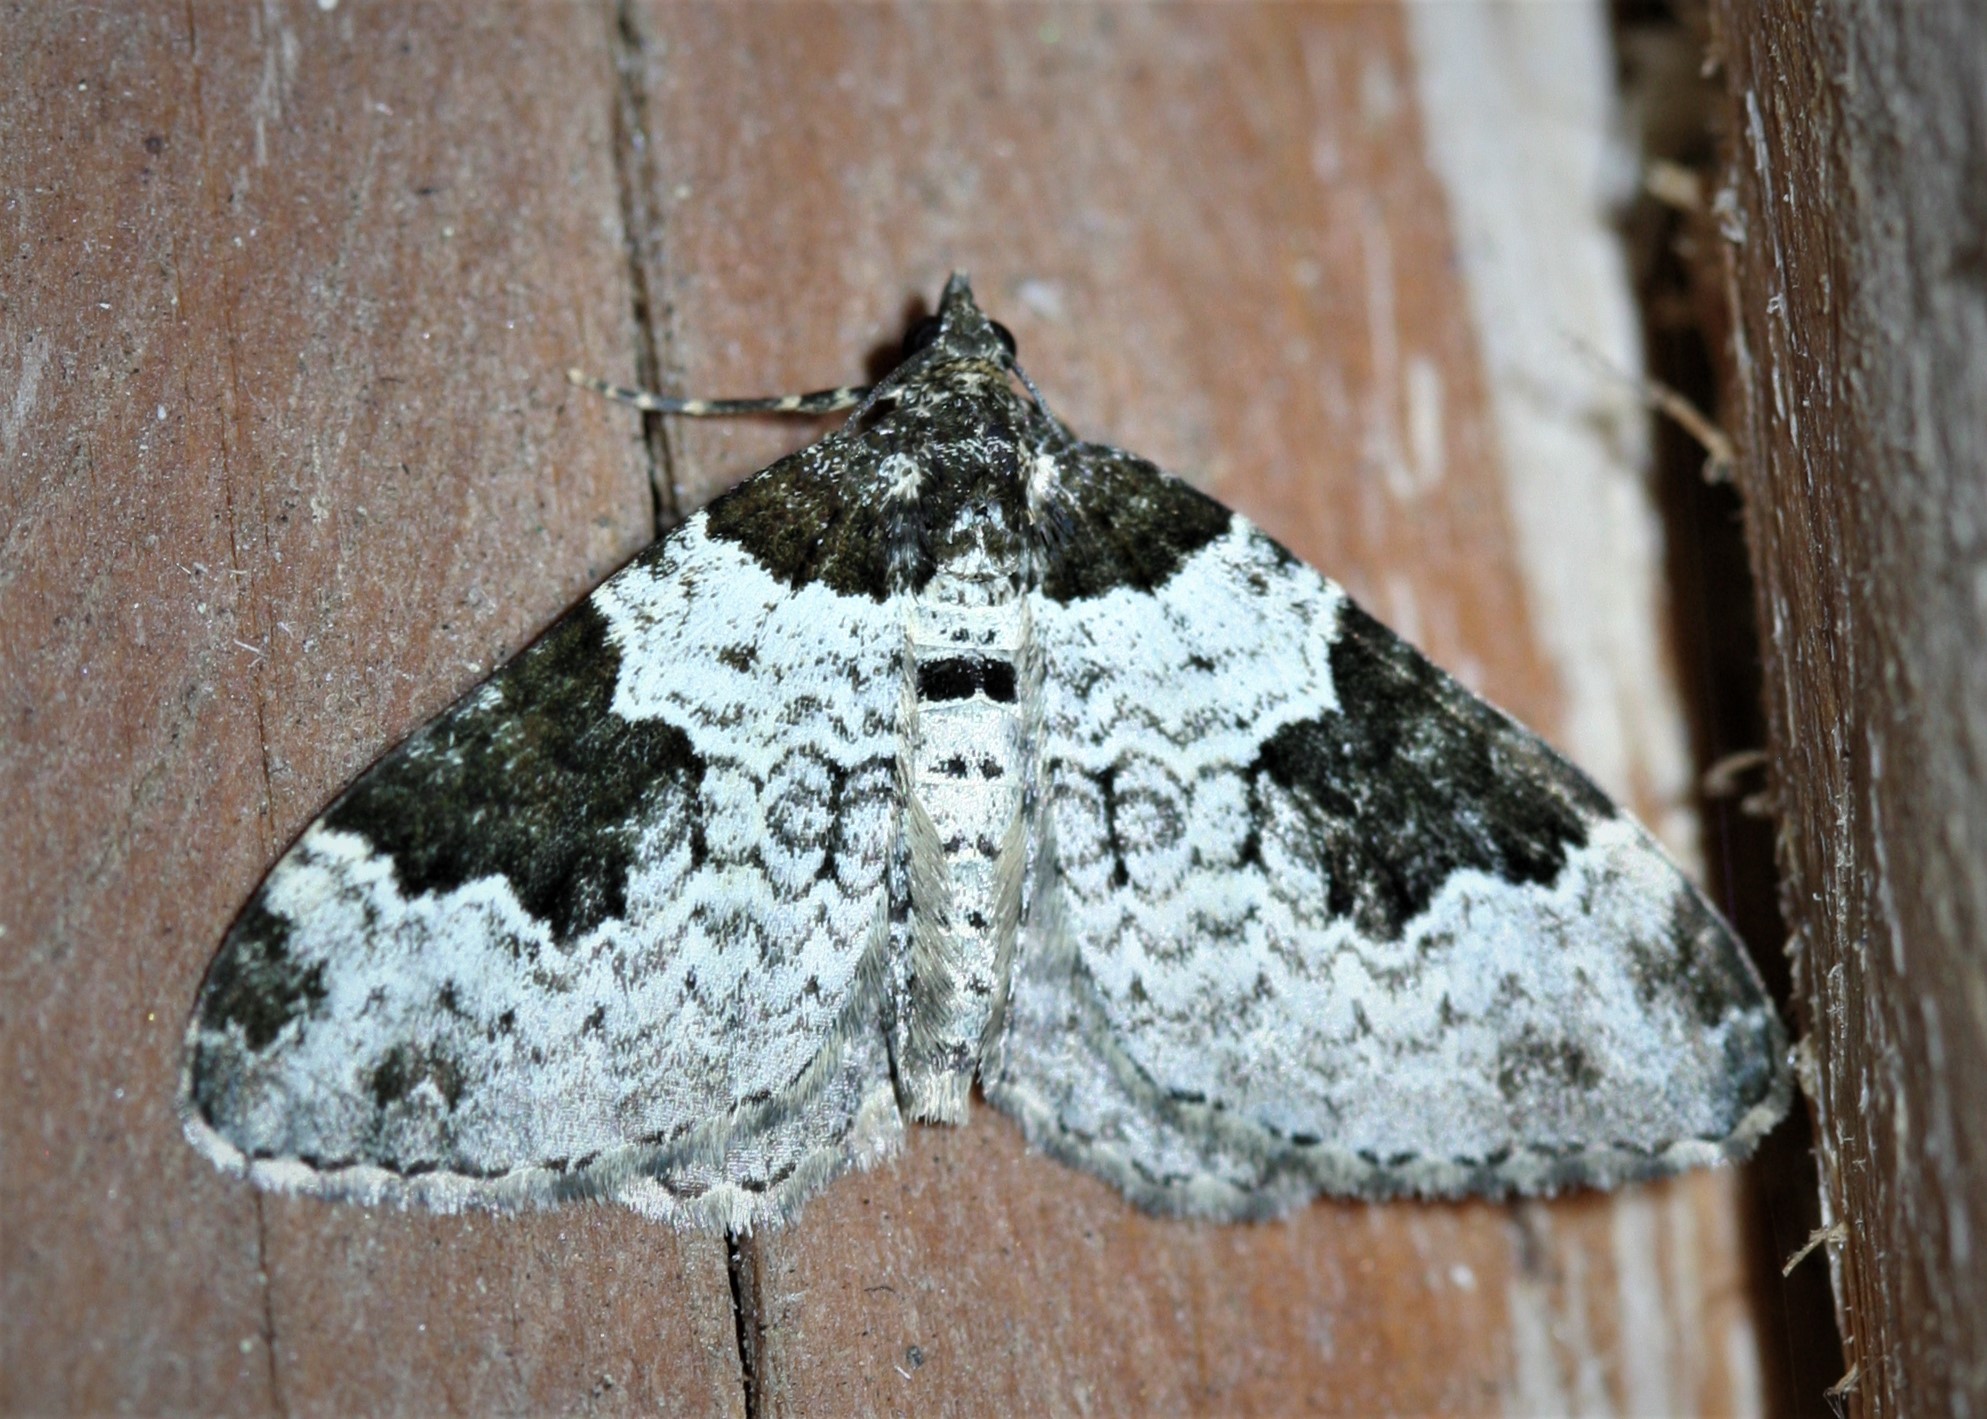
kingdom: Animalia
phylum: Arthropoda
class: Insecta
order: Lepidoptera
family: Geometridae
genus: Xanthorhoe
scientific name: Xanthorhoe fluctuata
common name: Garden carpet
